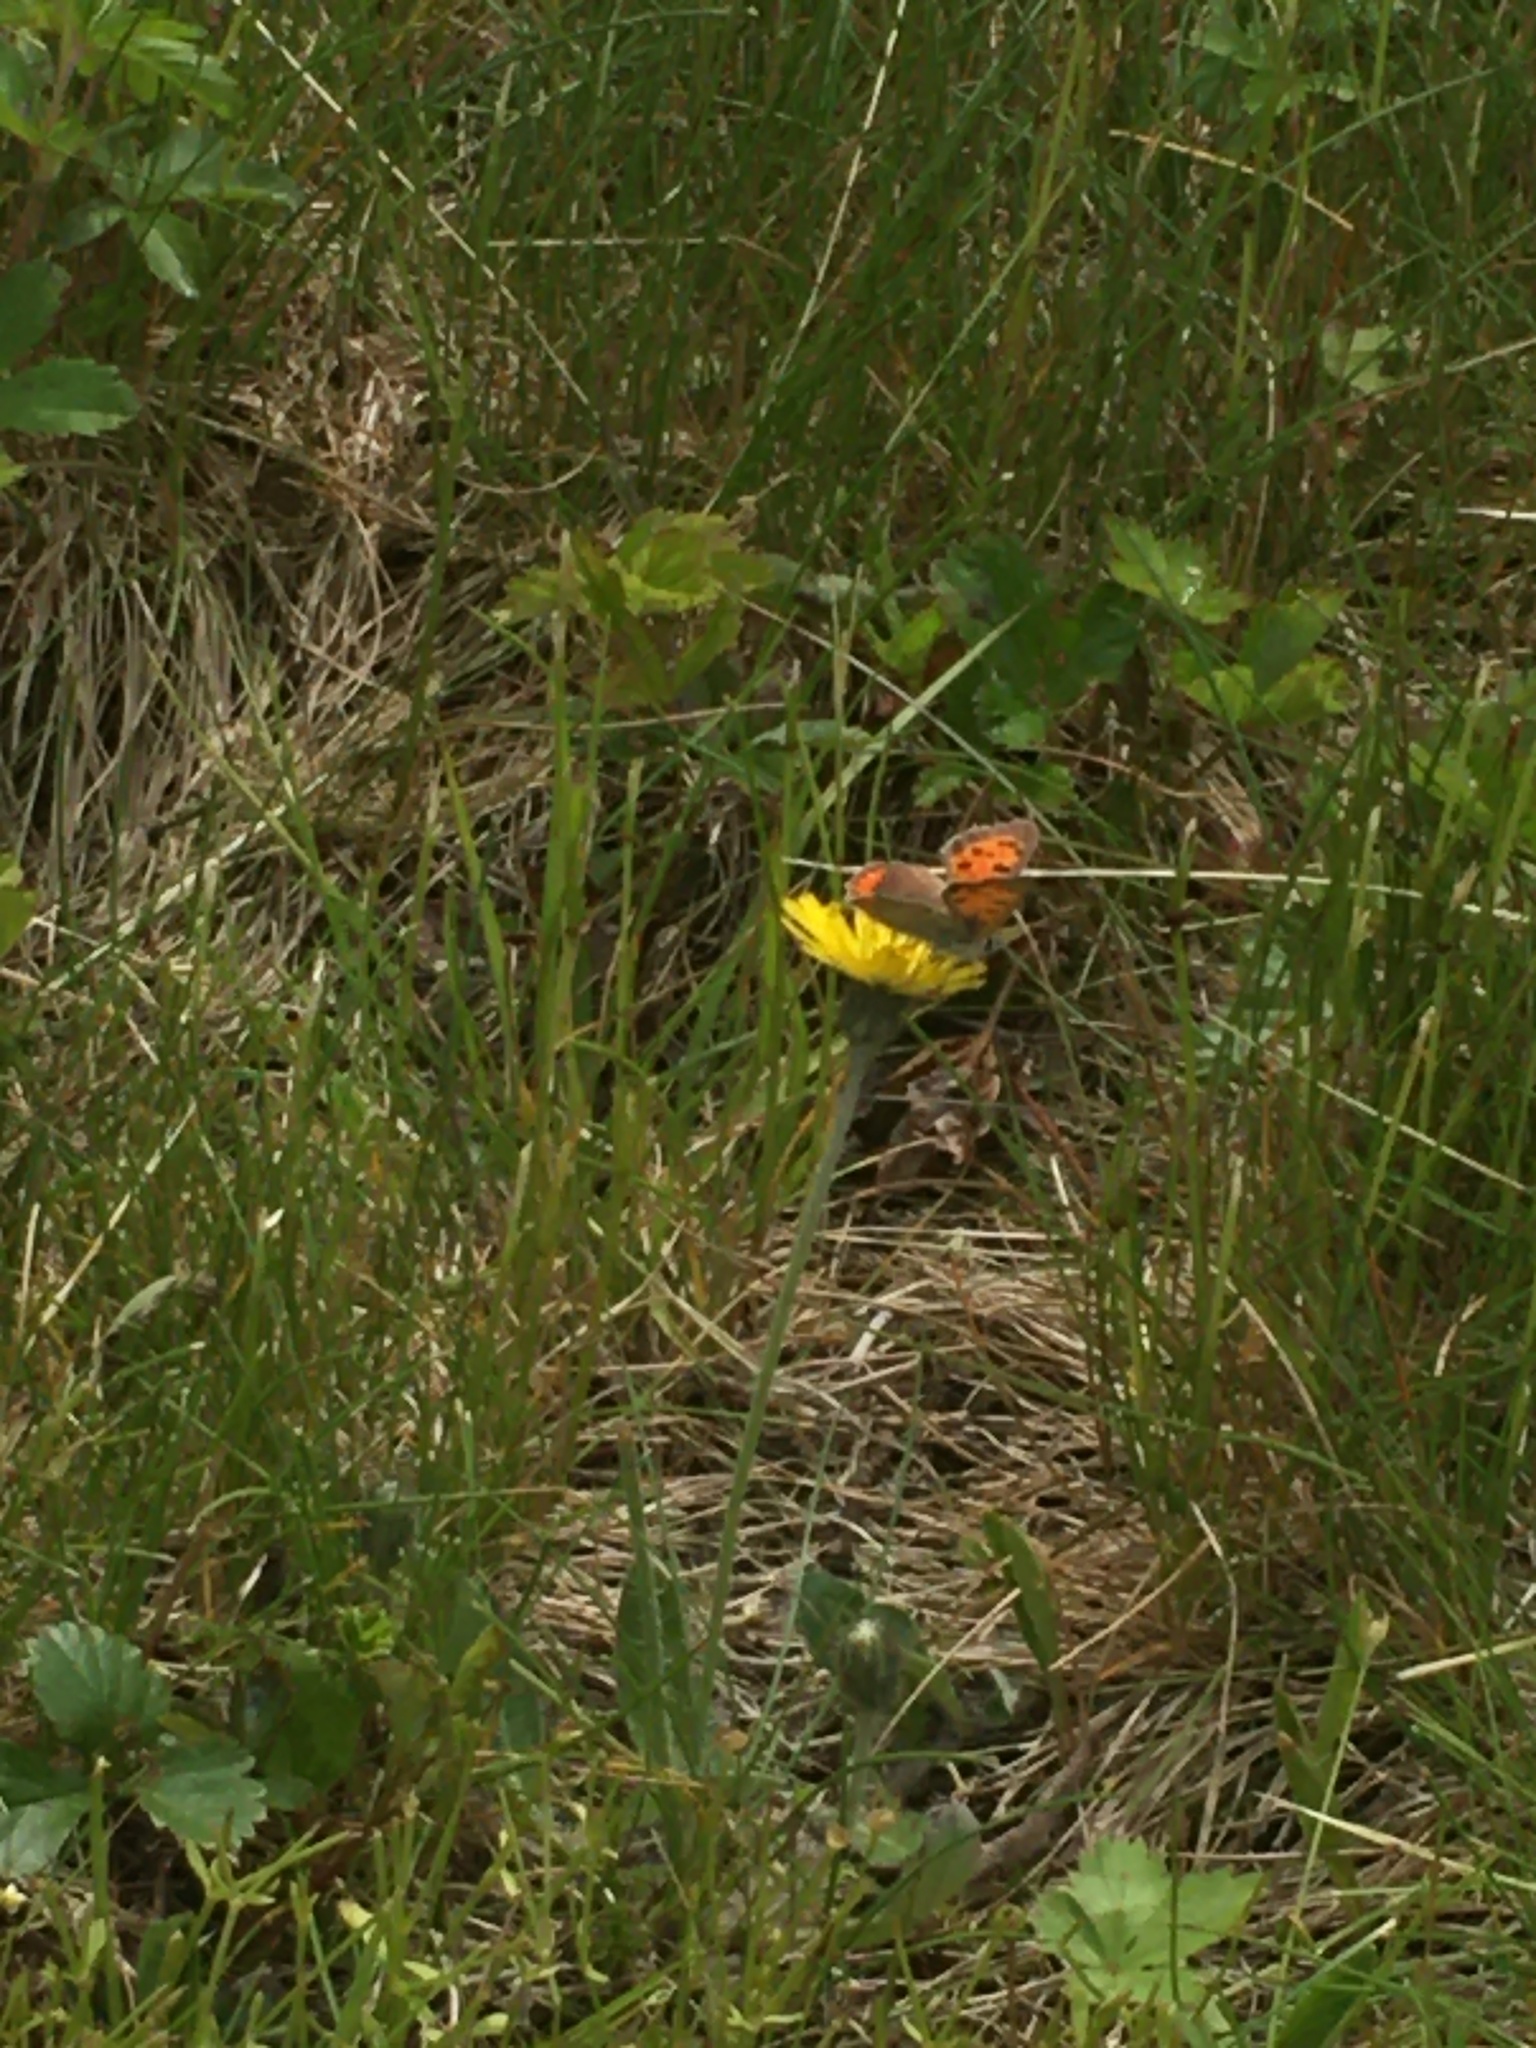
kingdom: Animalia
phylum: Arthropoda
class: Insecta
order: Lepidoptera
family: Lycaenidae
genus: Lycaena
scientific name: Lycaena hypophlaeas
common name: American copper
